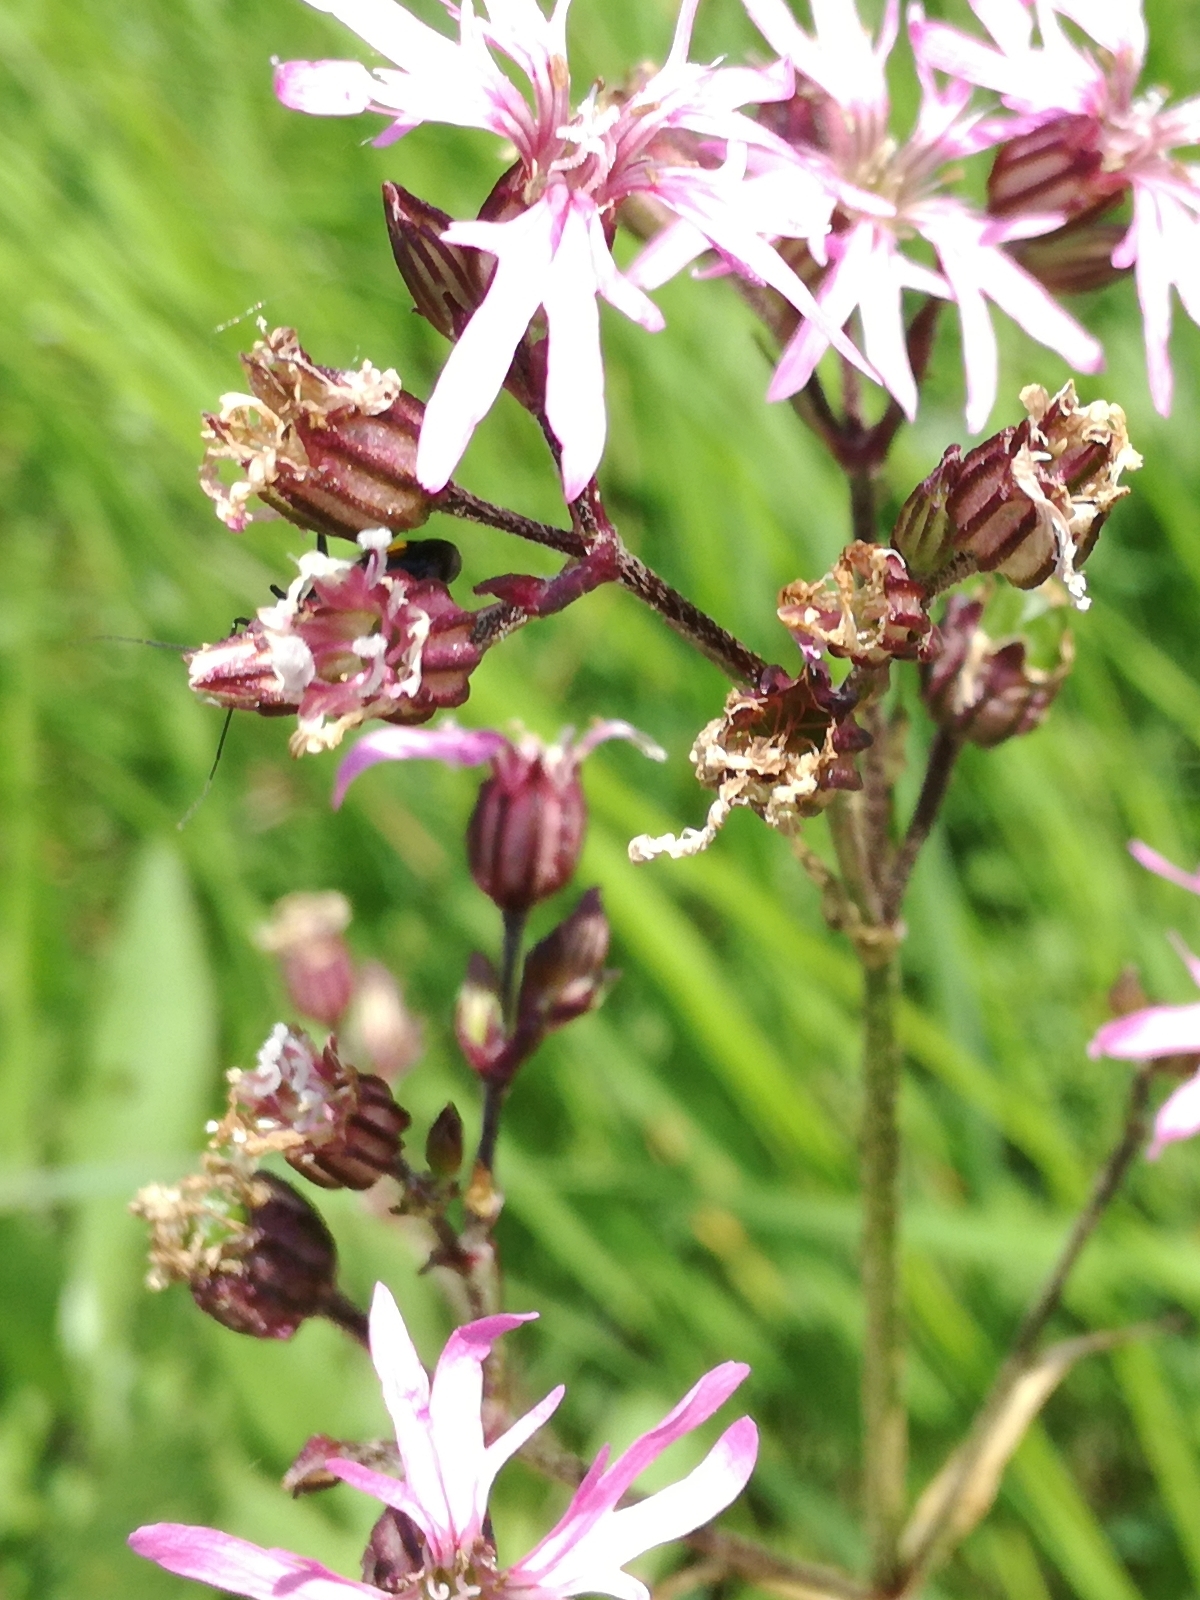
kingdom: Plantae
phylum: Tracheophyta
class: Magnoliopsida
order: Caryophyllales
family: Caryophyllaceae
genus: Silene
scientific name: Silene flos-cuculi
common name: Ragged-robin
